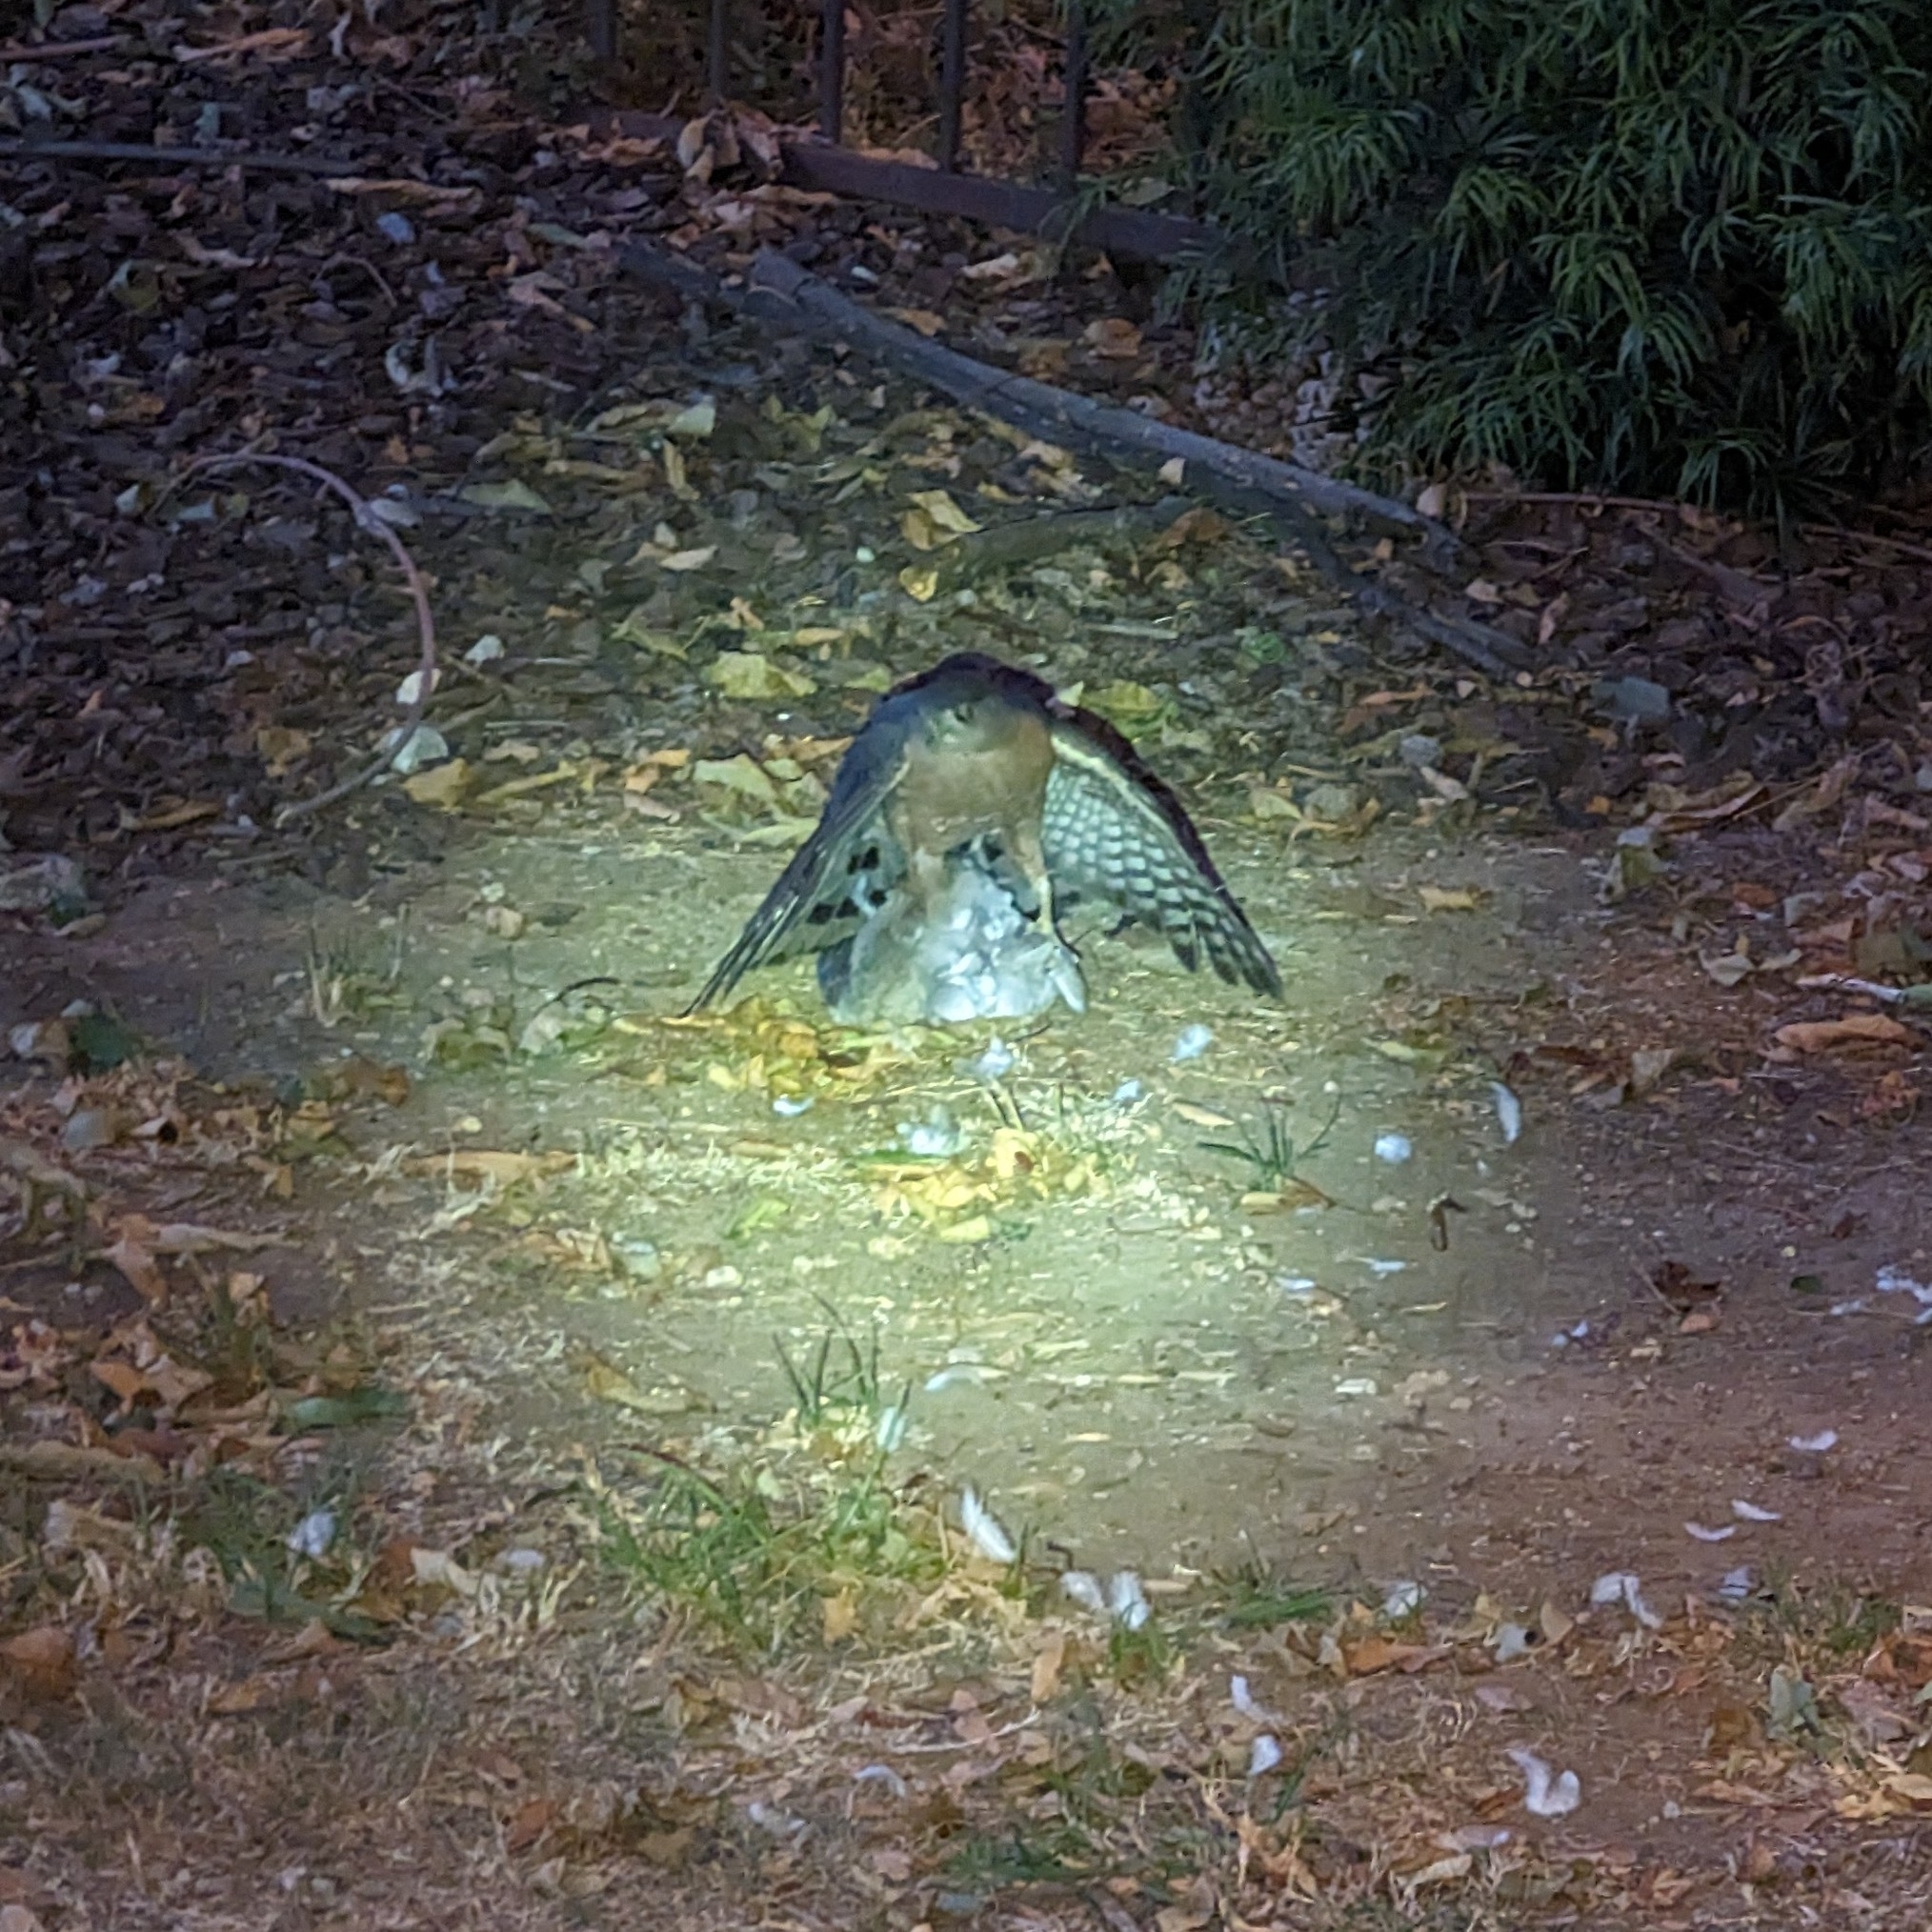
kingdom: Animalia
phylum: Chordata
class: Aves
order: Accipitriformes
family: Accipitridae
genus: Accipiter
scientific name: Accipiter cooperii
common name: Cooper's hawk
